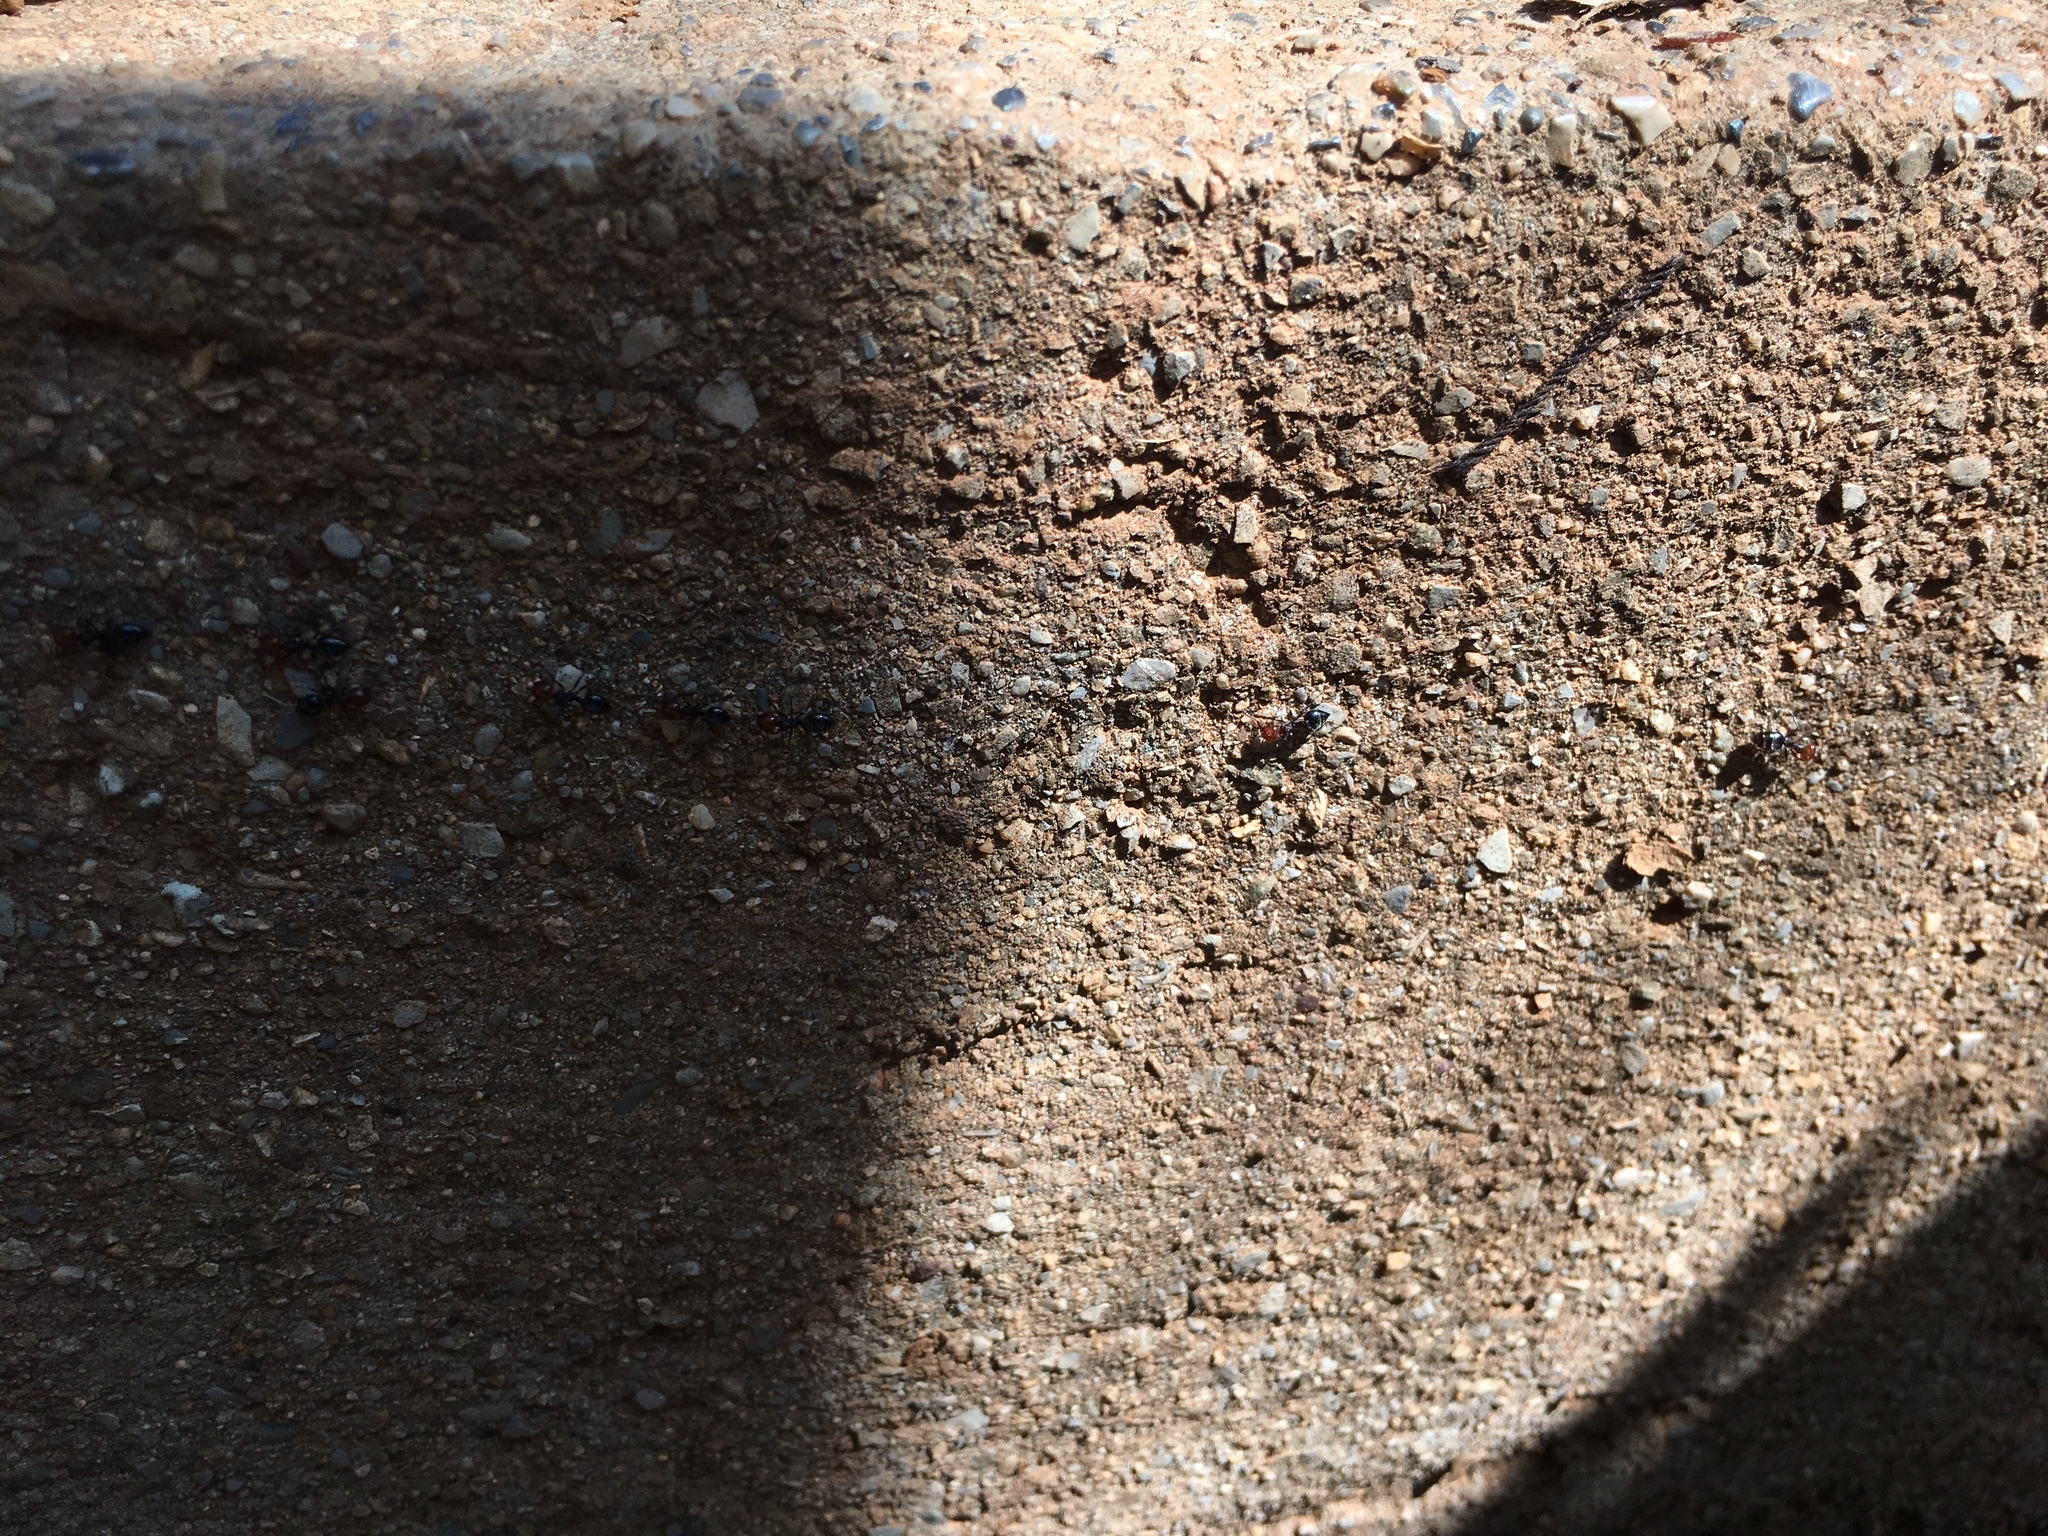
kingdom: Animalia
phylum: Arthropoda
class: Insecta
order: Hymenoptera
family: Formicidae
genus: Crematogaster
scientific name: Crematogaster scutellaris
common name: Fourmi du liège
